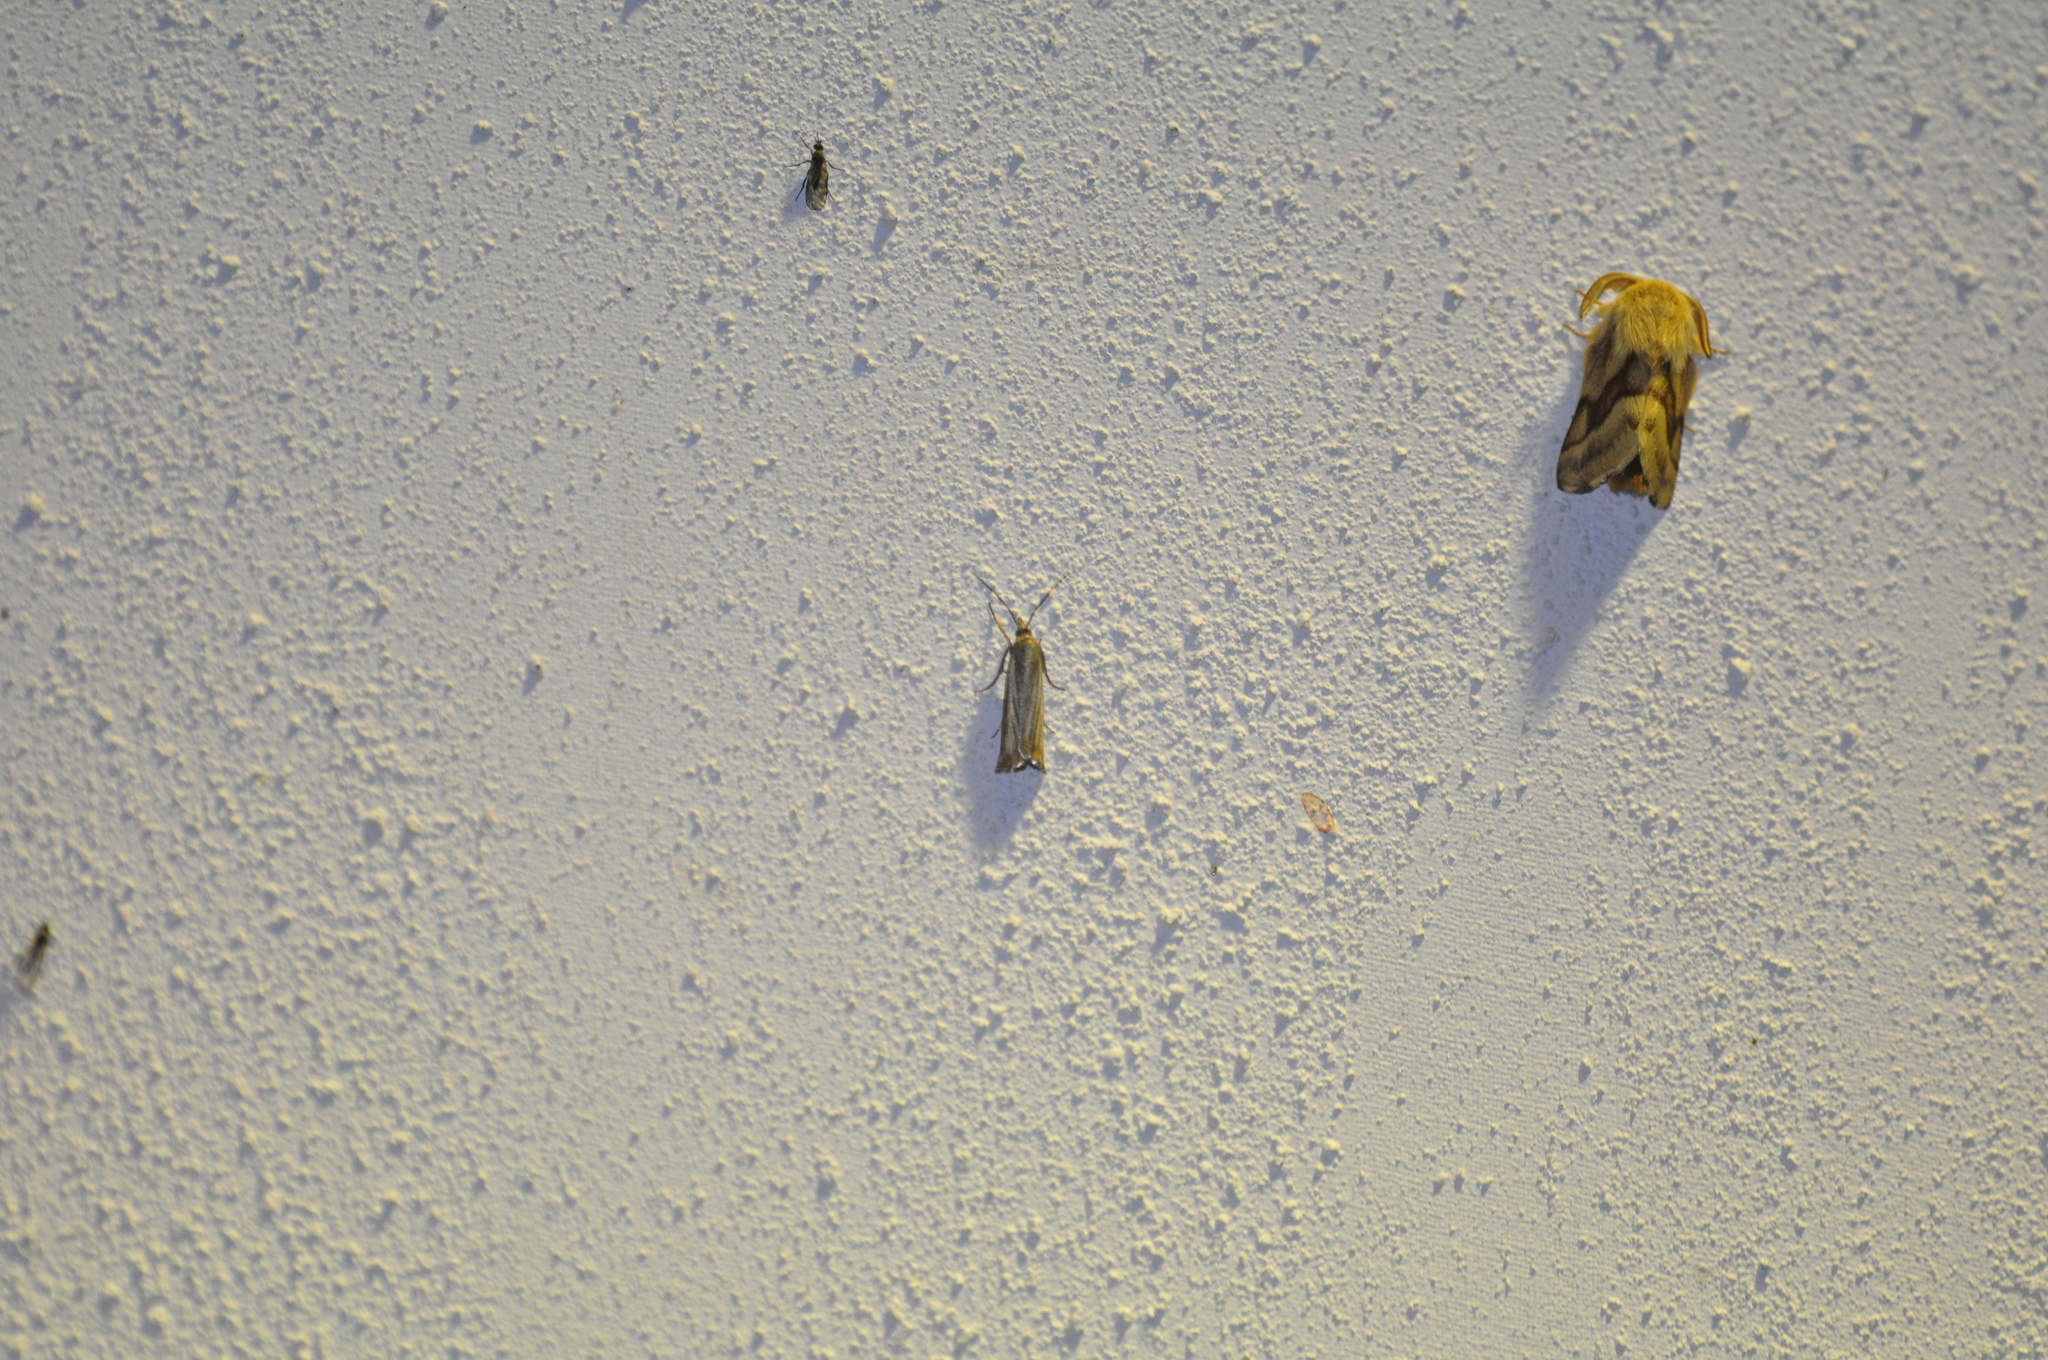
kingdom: Animalia
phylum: Arthropoda
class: Insecta
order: Lepidoptera
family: Crambidae
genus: Chrysoteuchia
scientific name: Chrysoteuchia culmella
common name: Garden grass-veneer
